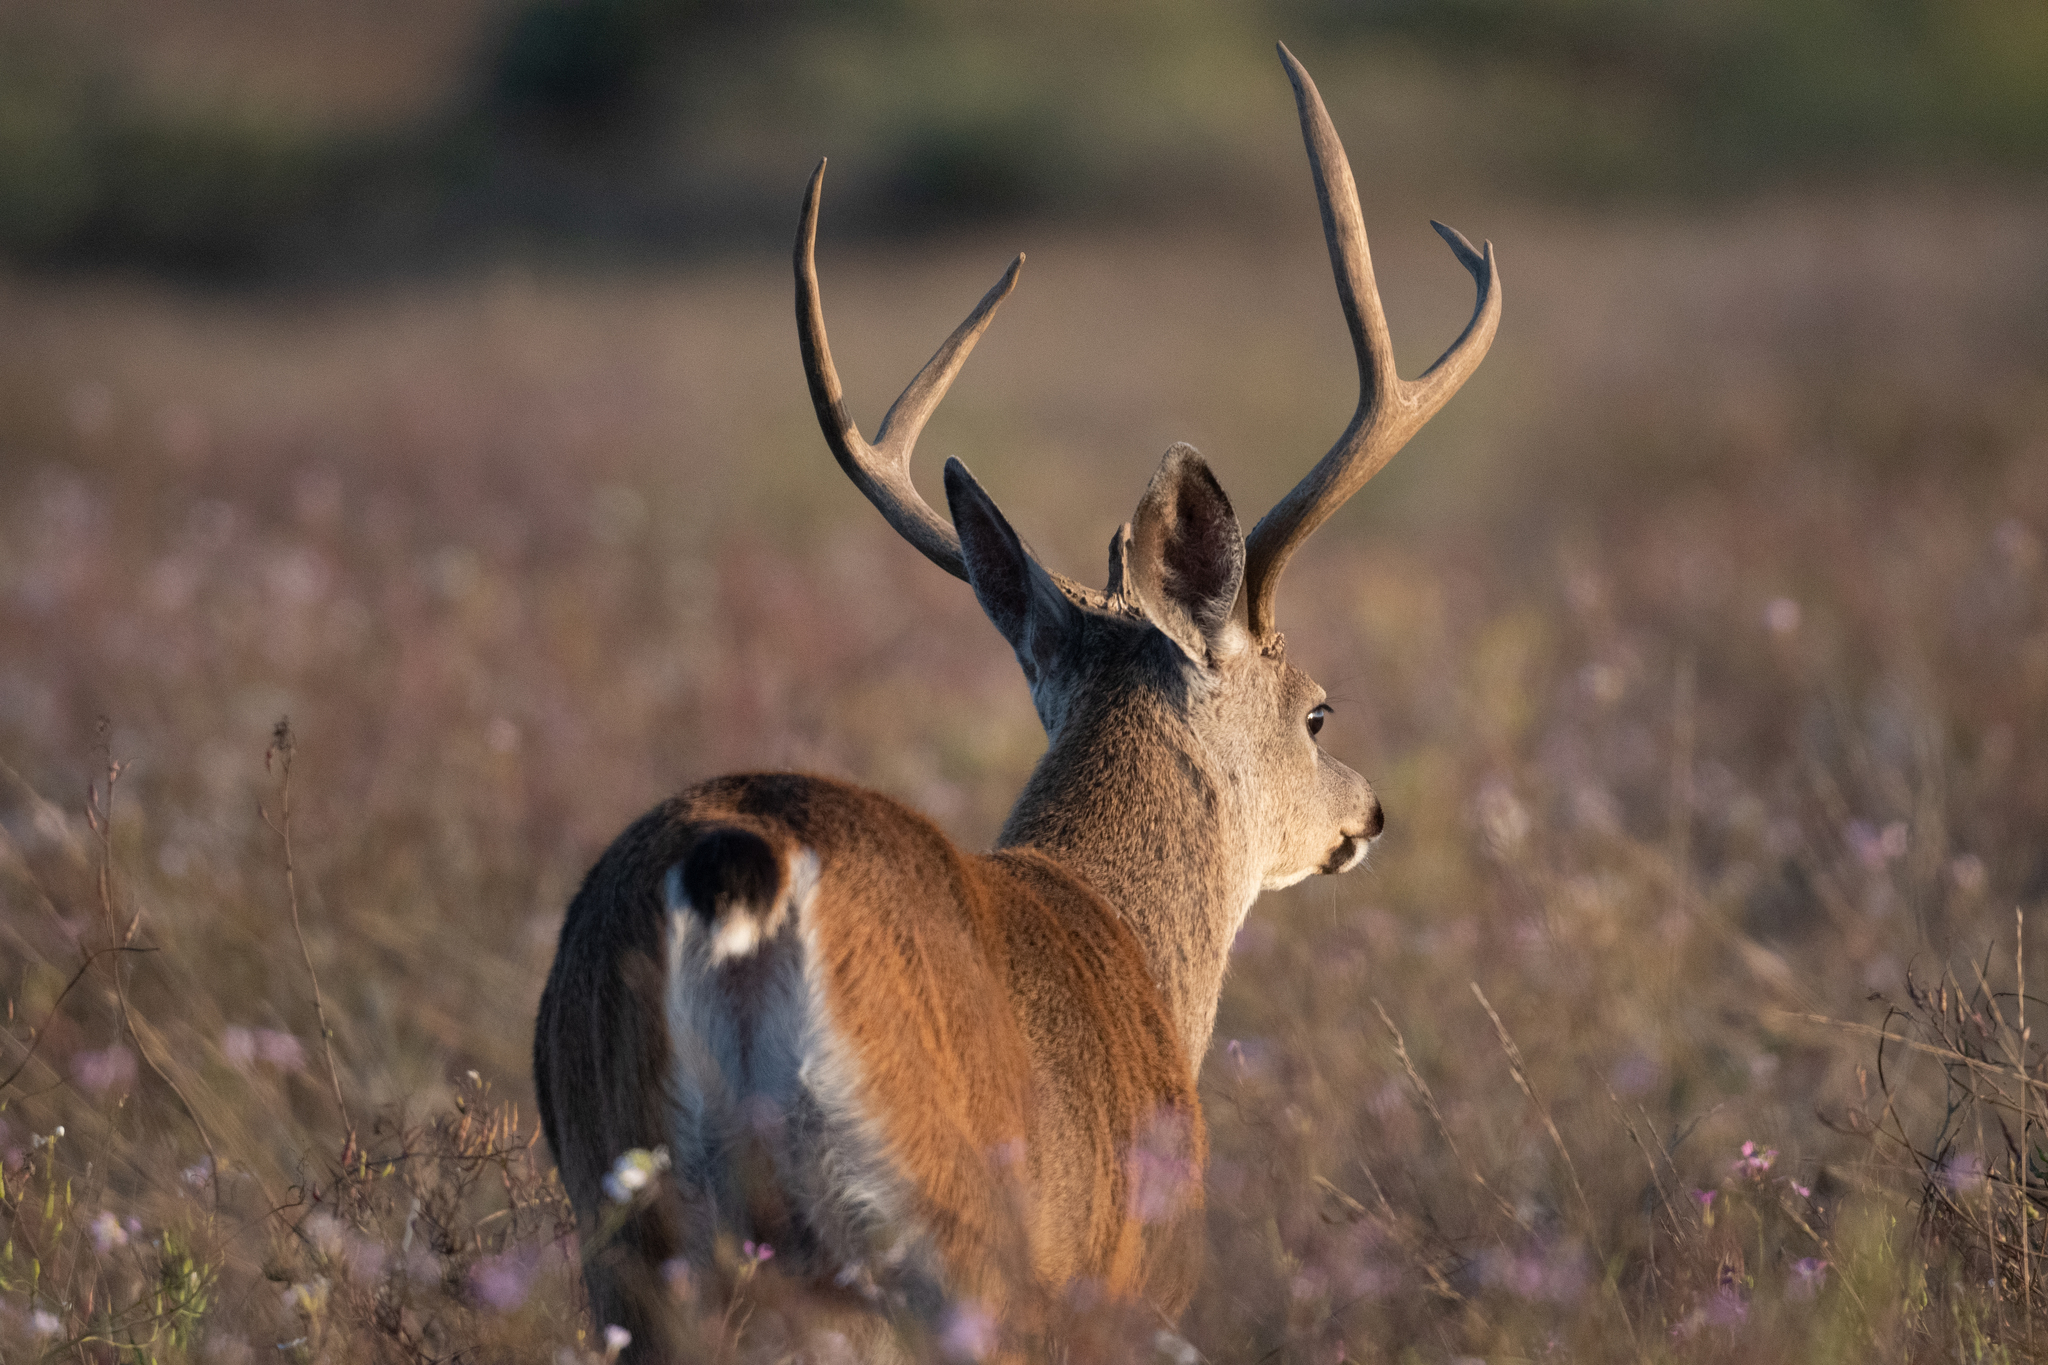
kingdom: Animalia
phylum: Chordata
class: Mammalia
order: Artiodactyla
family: Cervidae
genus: Odocoileus
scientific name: Odocoileus hemionus
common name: Mule deer
